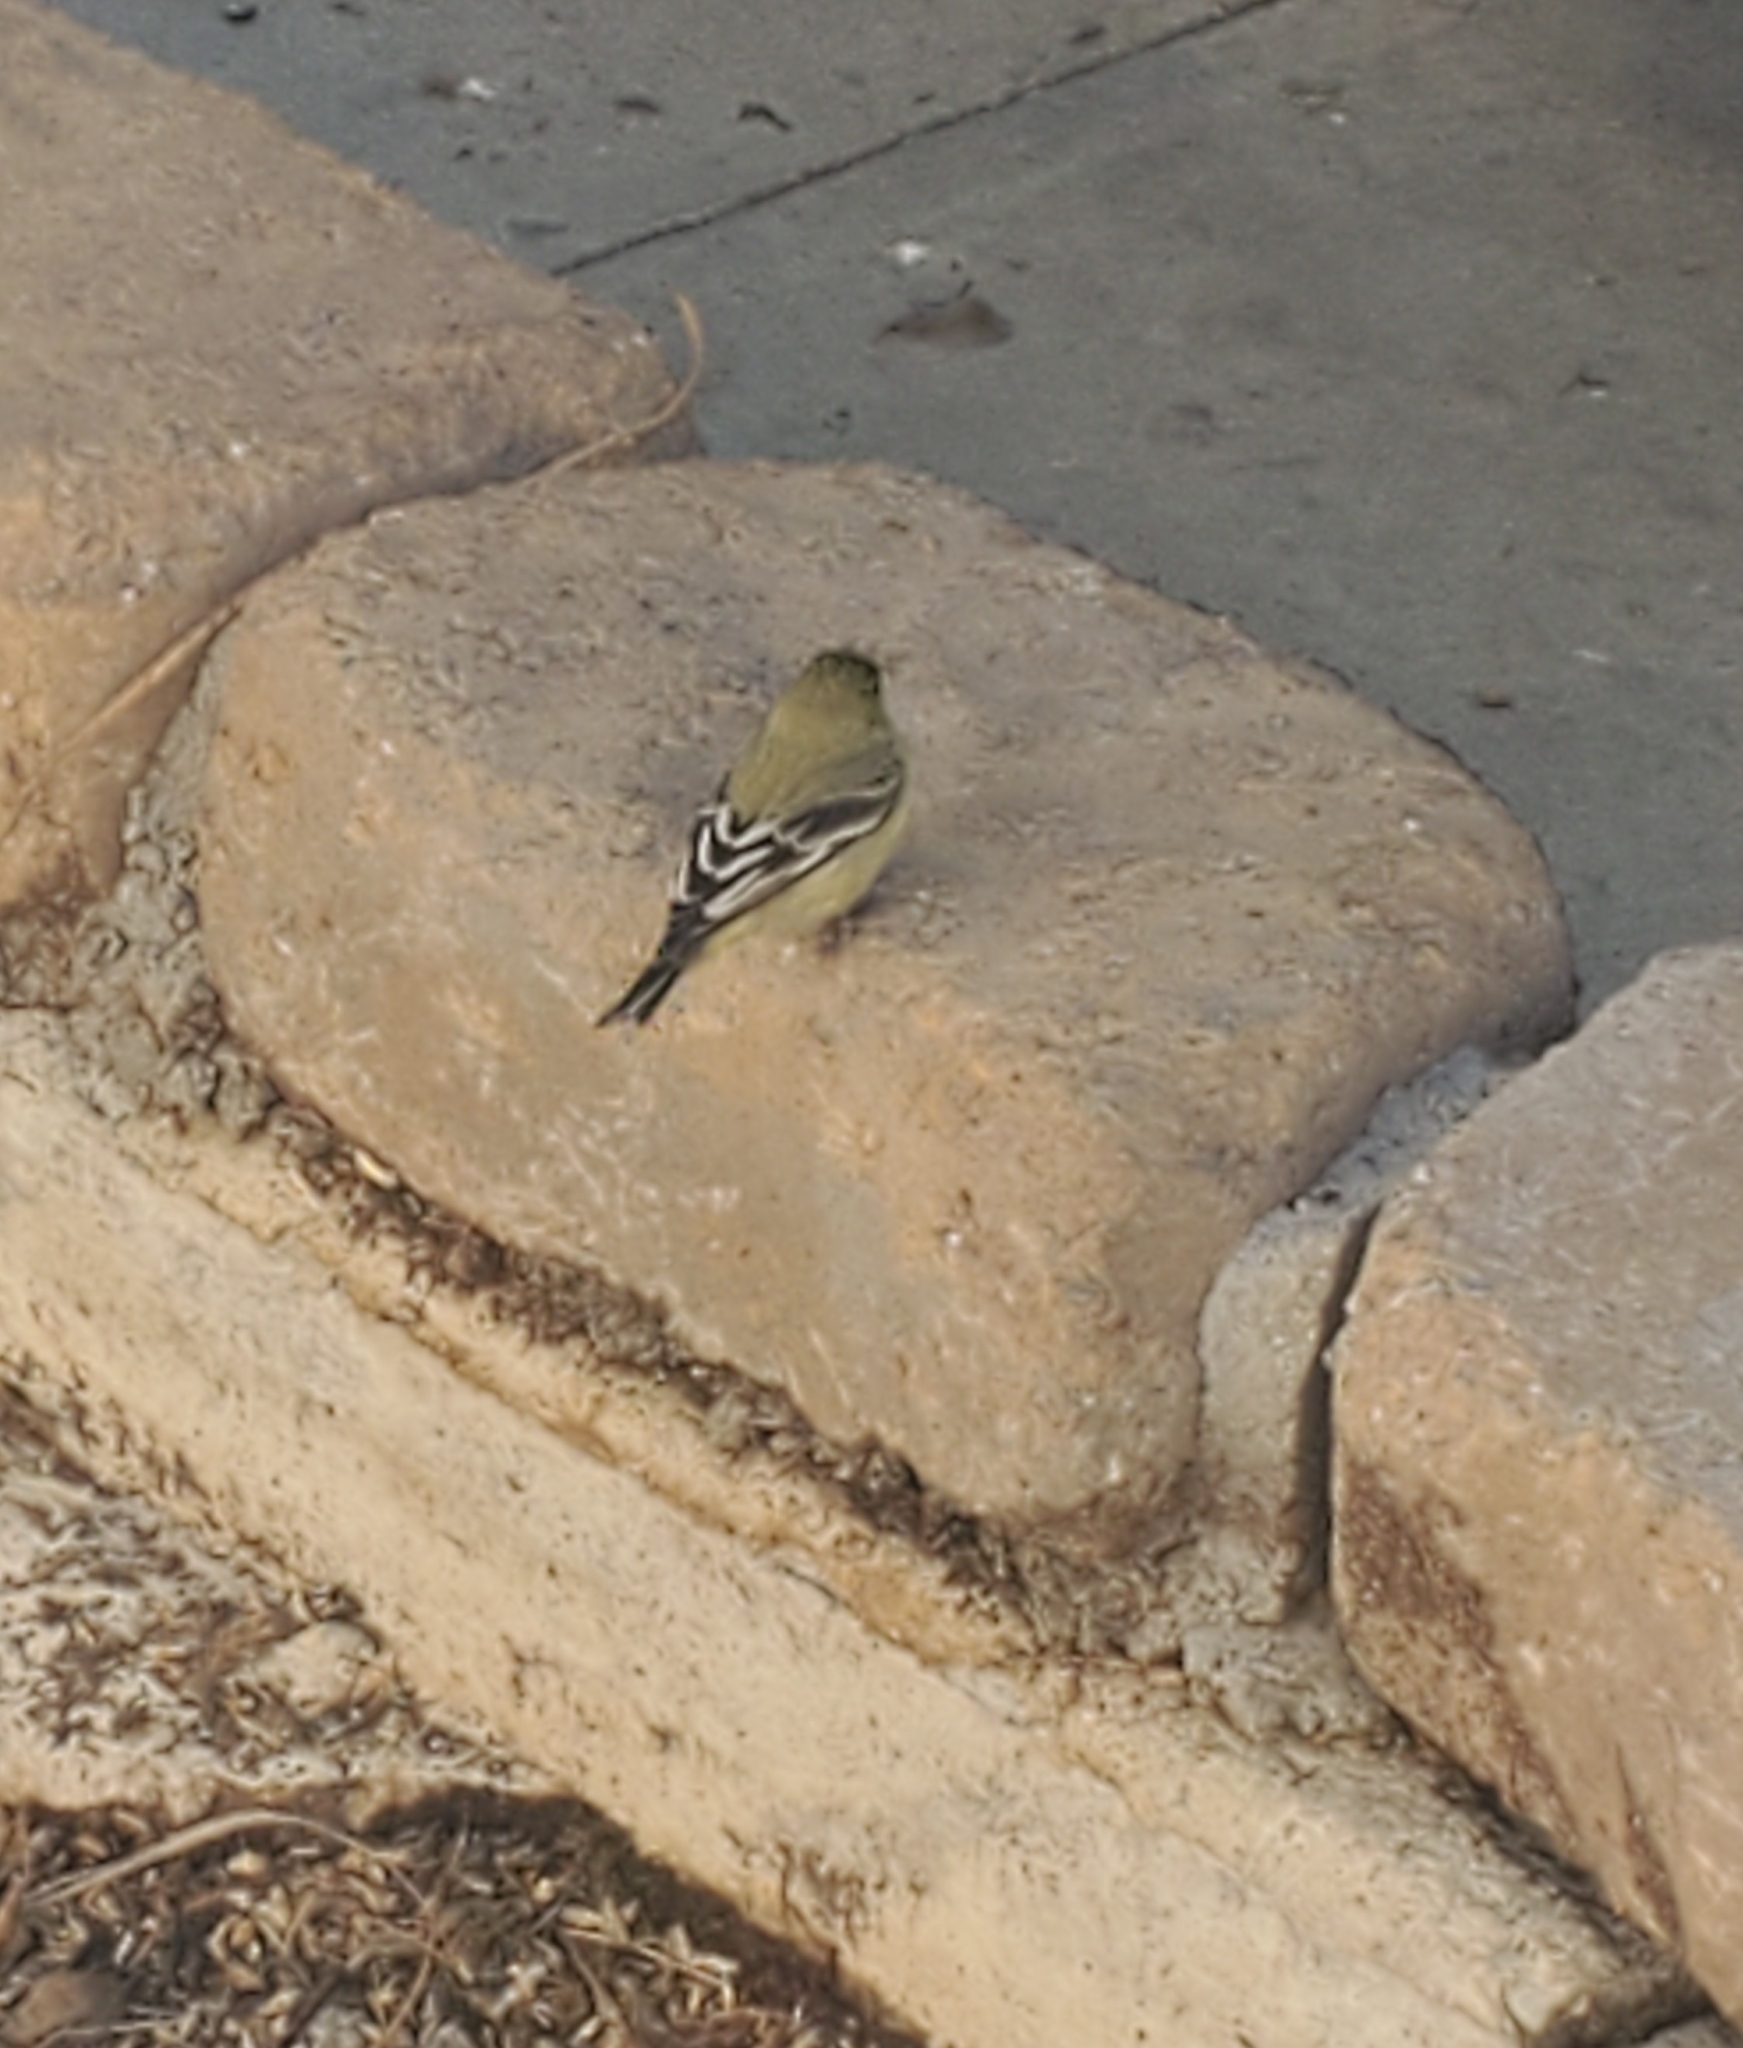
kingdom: Animalia
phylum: Chordata
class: Aves
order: Passeriformes
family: Fringillidae
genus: Spinus
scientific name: Spinus psaltria
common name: Lesser goldfinch
